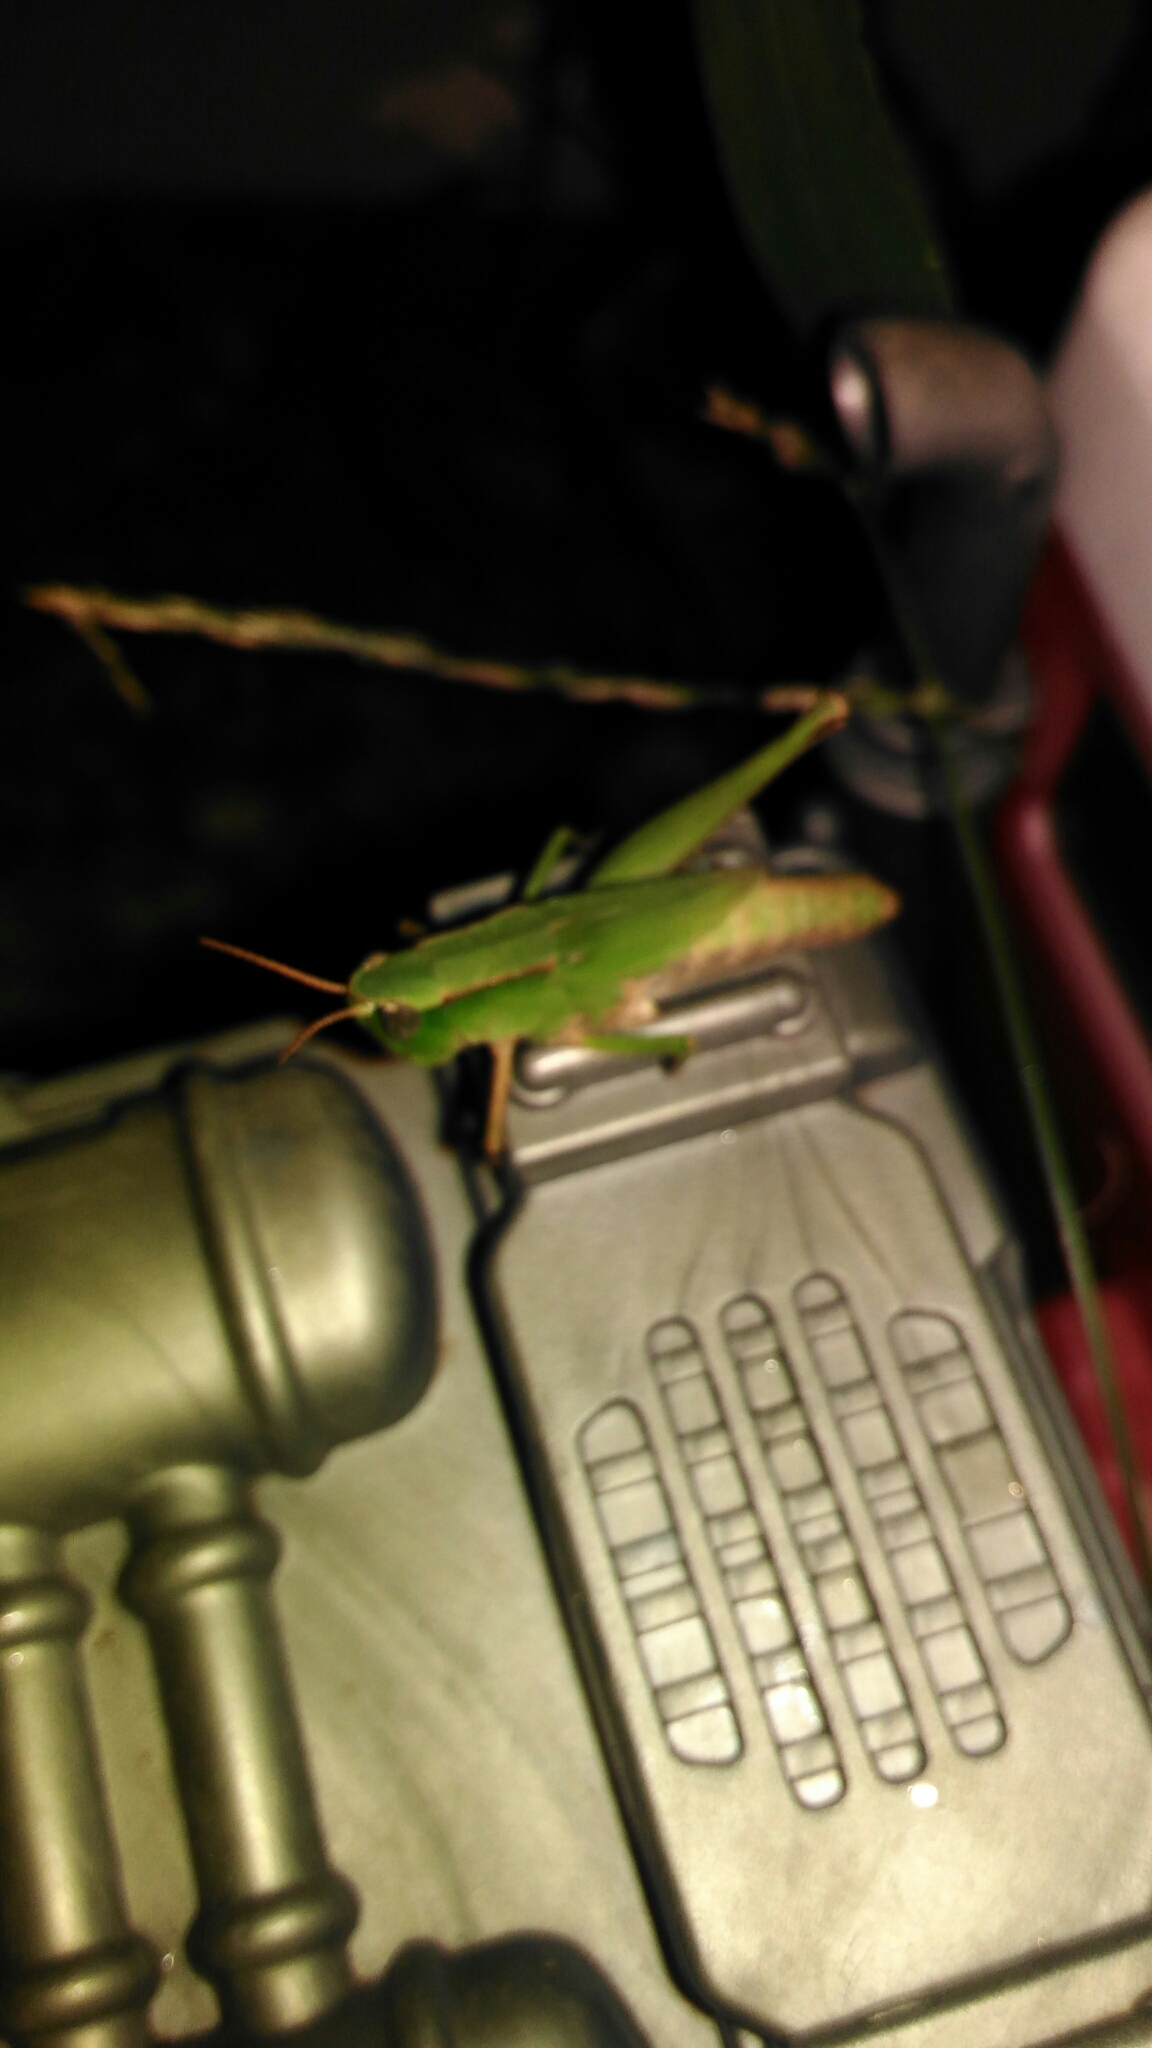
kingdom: Animalia
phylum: Arthropoda
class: Insecta
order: Orthoptera
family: Acrididae
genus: Dichromorpha
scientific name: Dichromorpha viridis
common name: Short-winged green grasshopper
